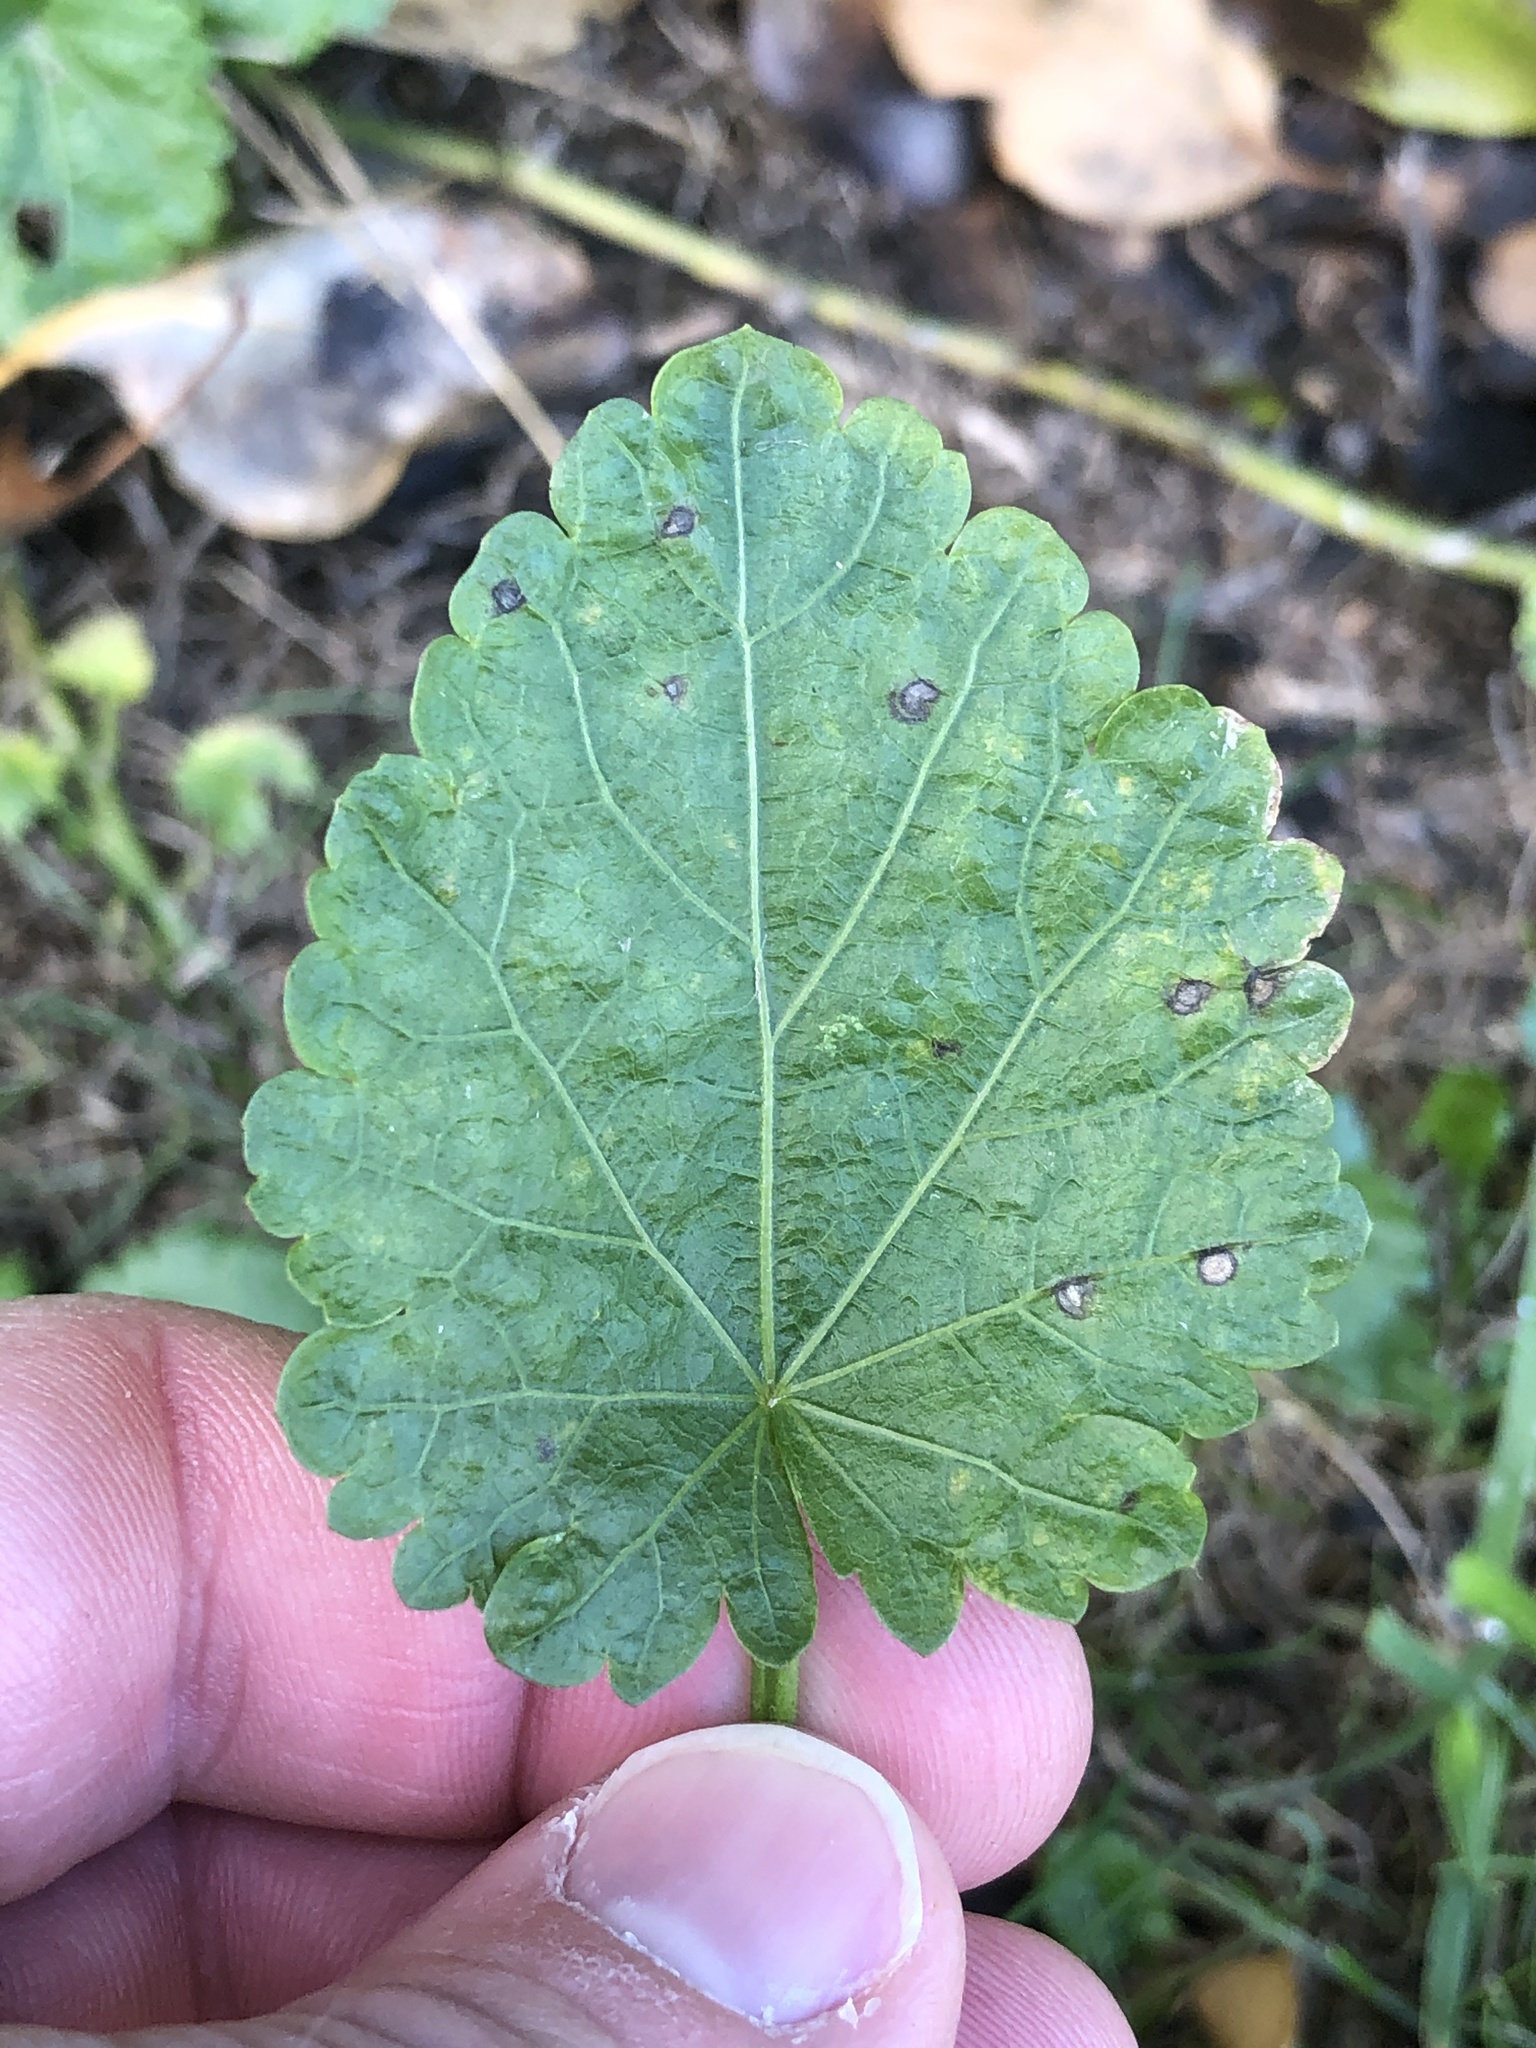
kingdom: Plantae
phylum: Tracheophyta
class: Magnoliopsida
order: Malvales
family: Malvaceae
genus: Modiola
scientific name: Modiola caroliniana
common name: Carolina bristlemallow
